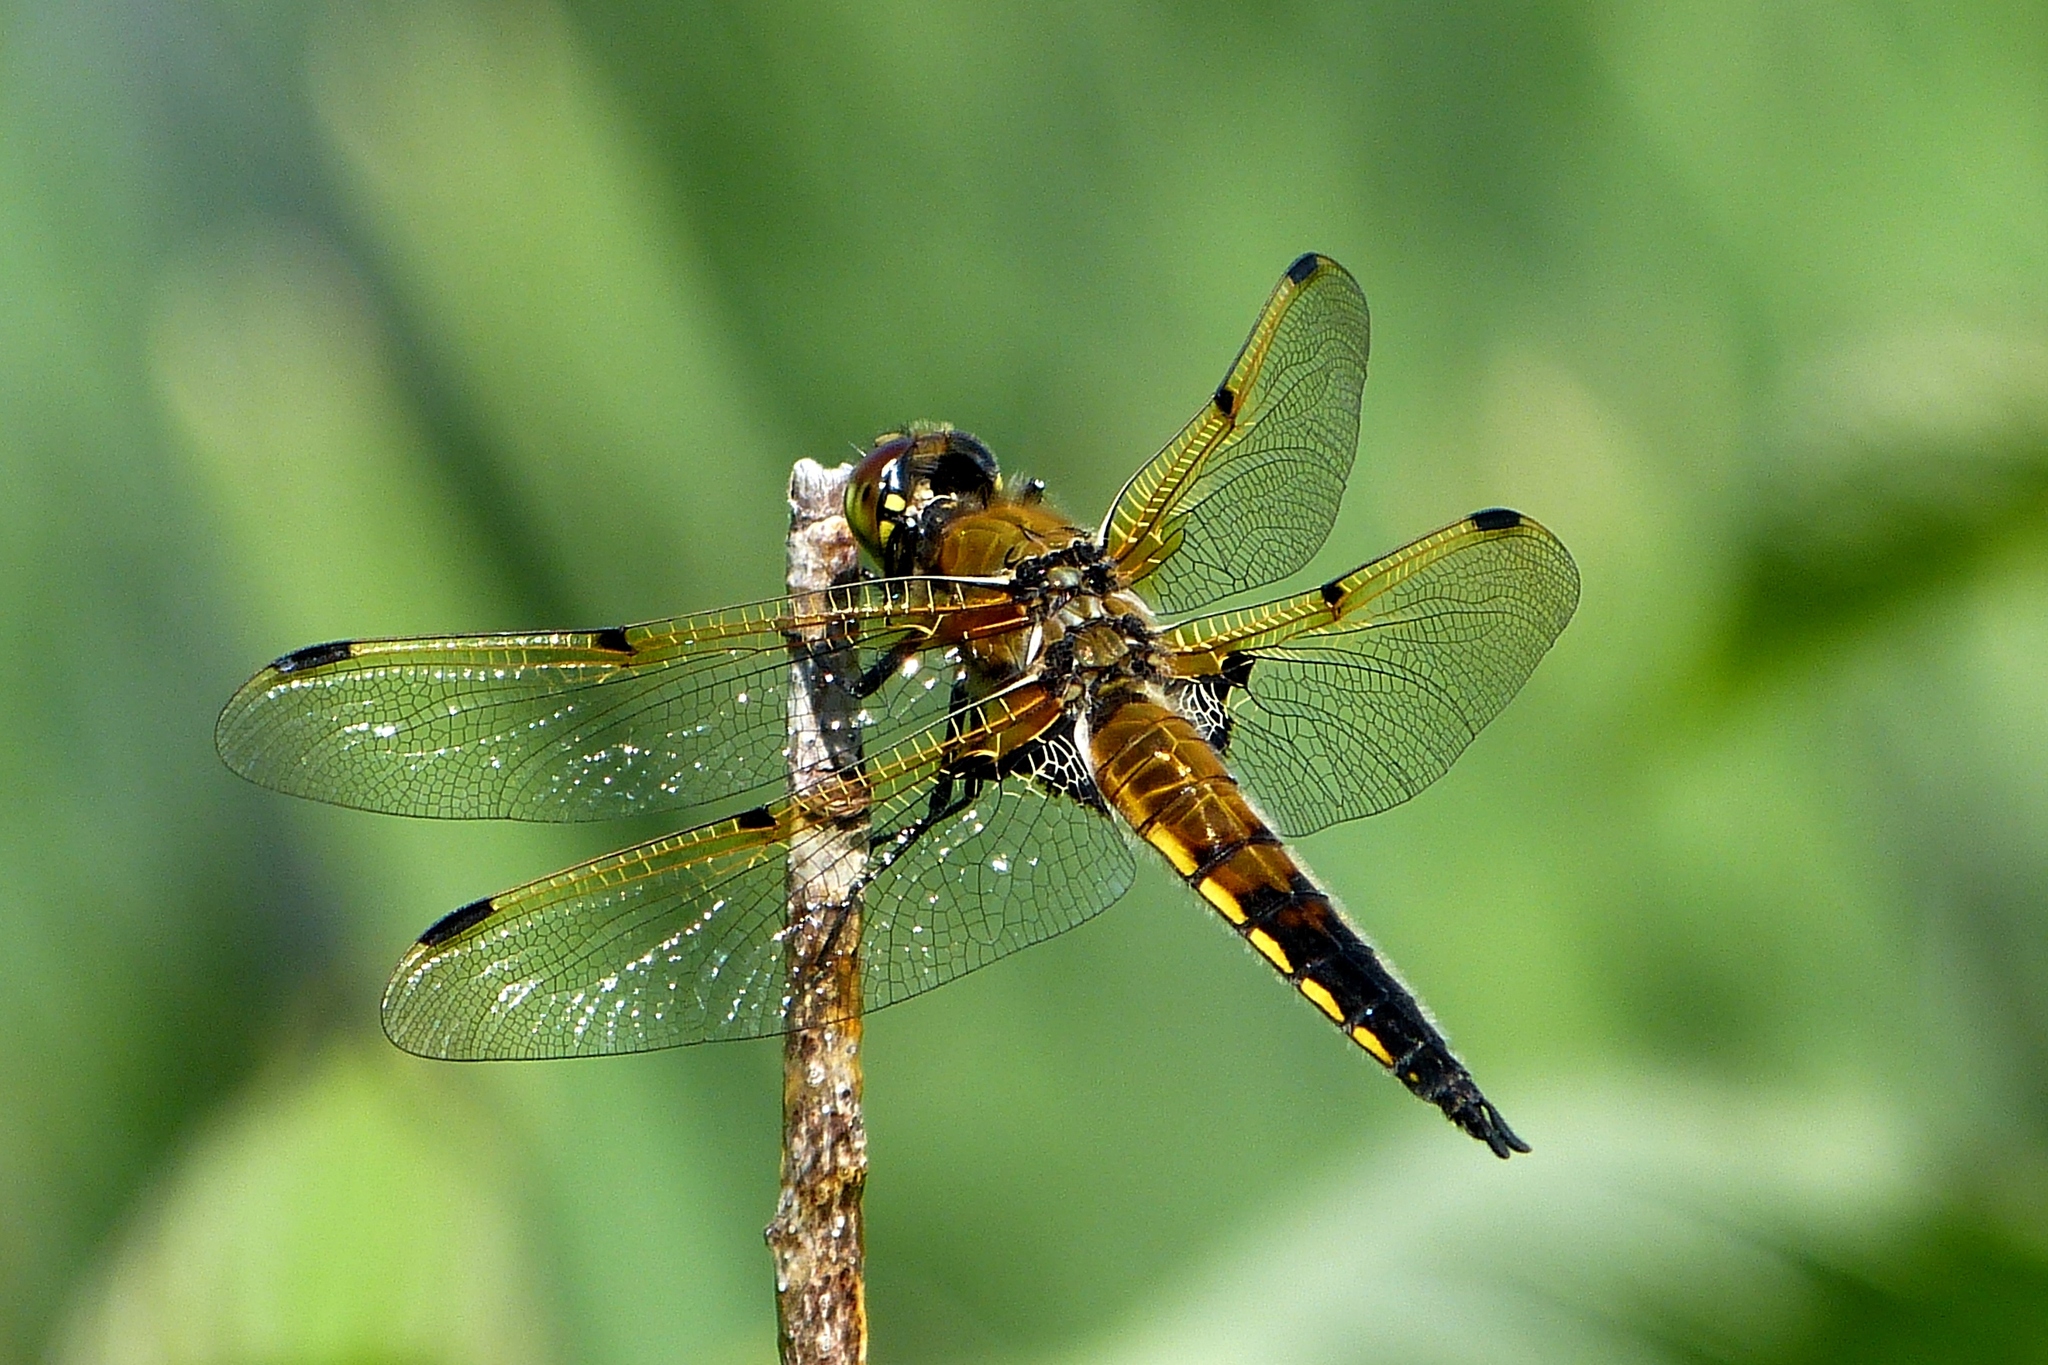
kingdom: Animalia
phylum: Arthropoda
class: Insecta
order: Odonata
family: Libellulidae
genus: Libellula
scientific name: Libellula quadrimaculata
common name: Four-spotted chaser
